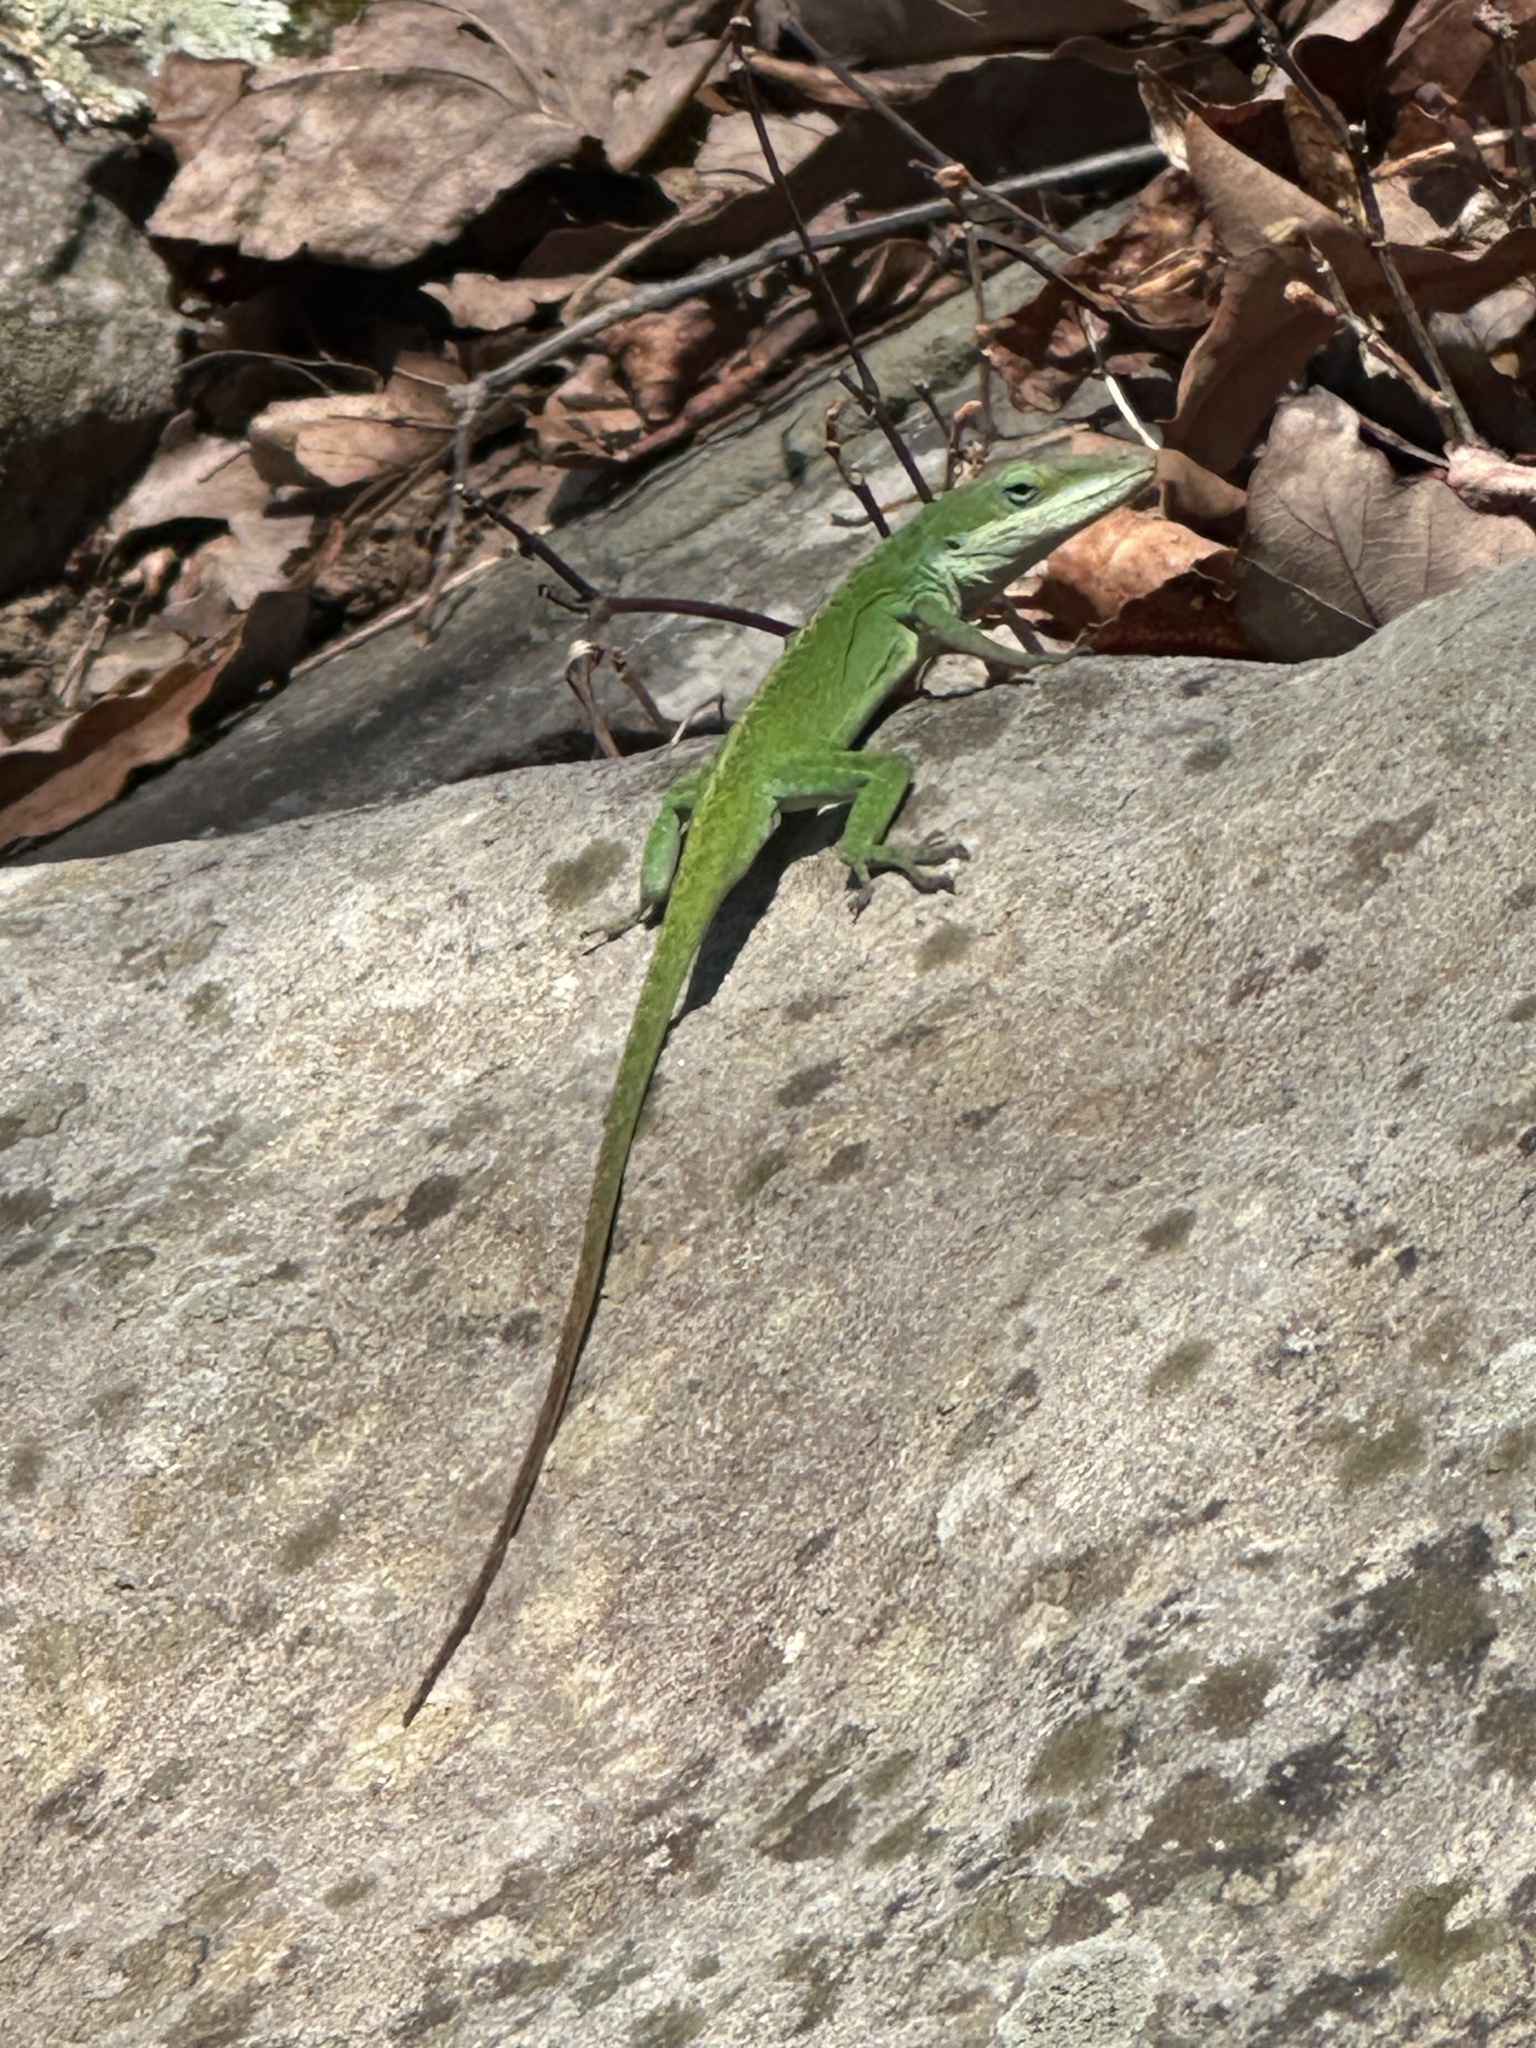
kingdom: Animalia
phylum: Chordata
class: Squamata
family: Dactyloidae
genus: Anolis
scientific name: Anolis carolinensis
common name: Green anole
